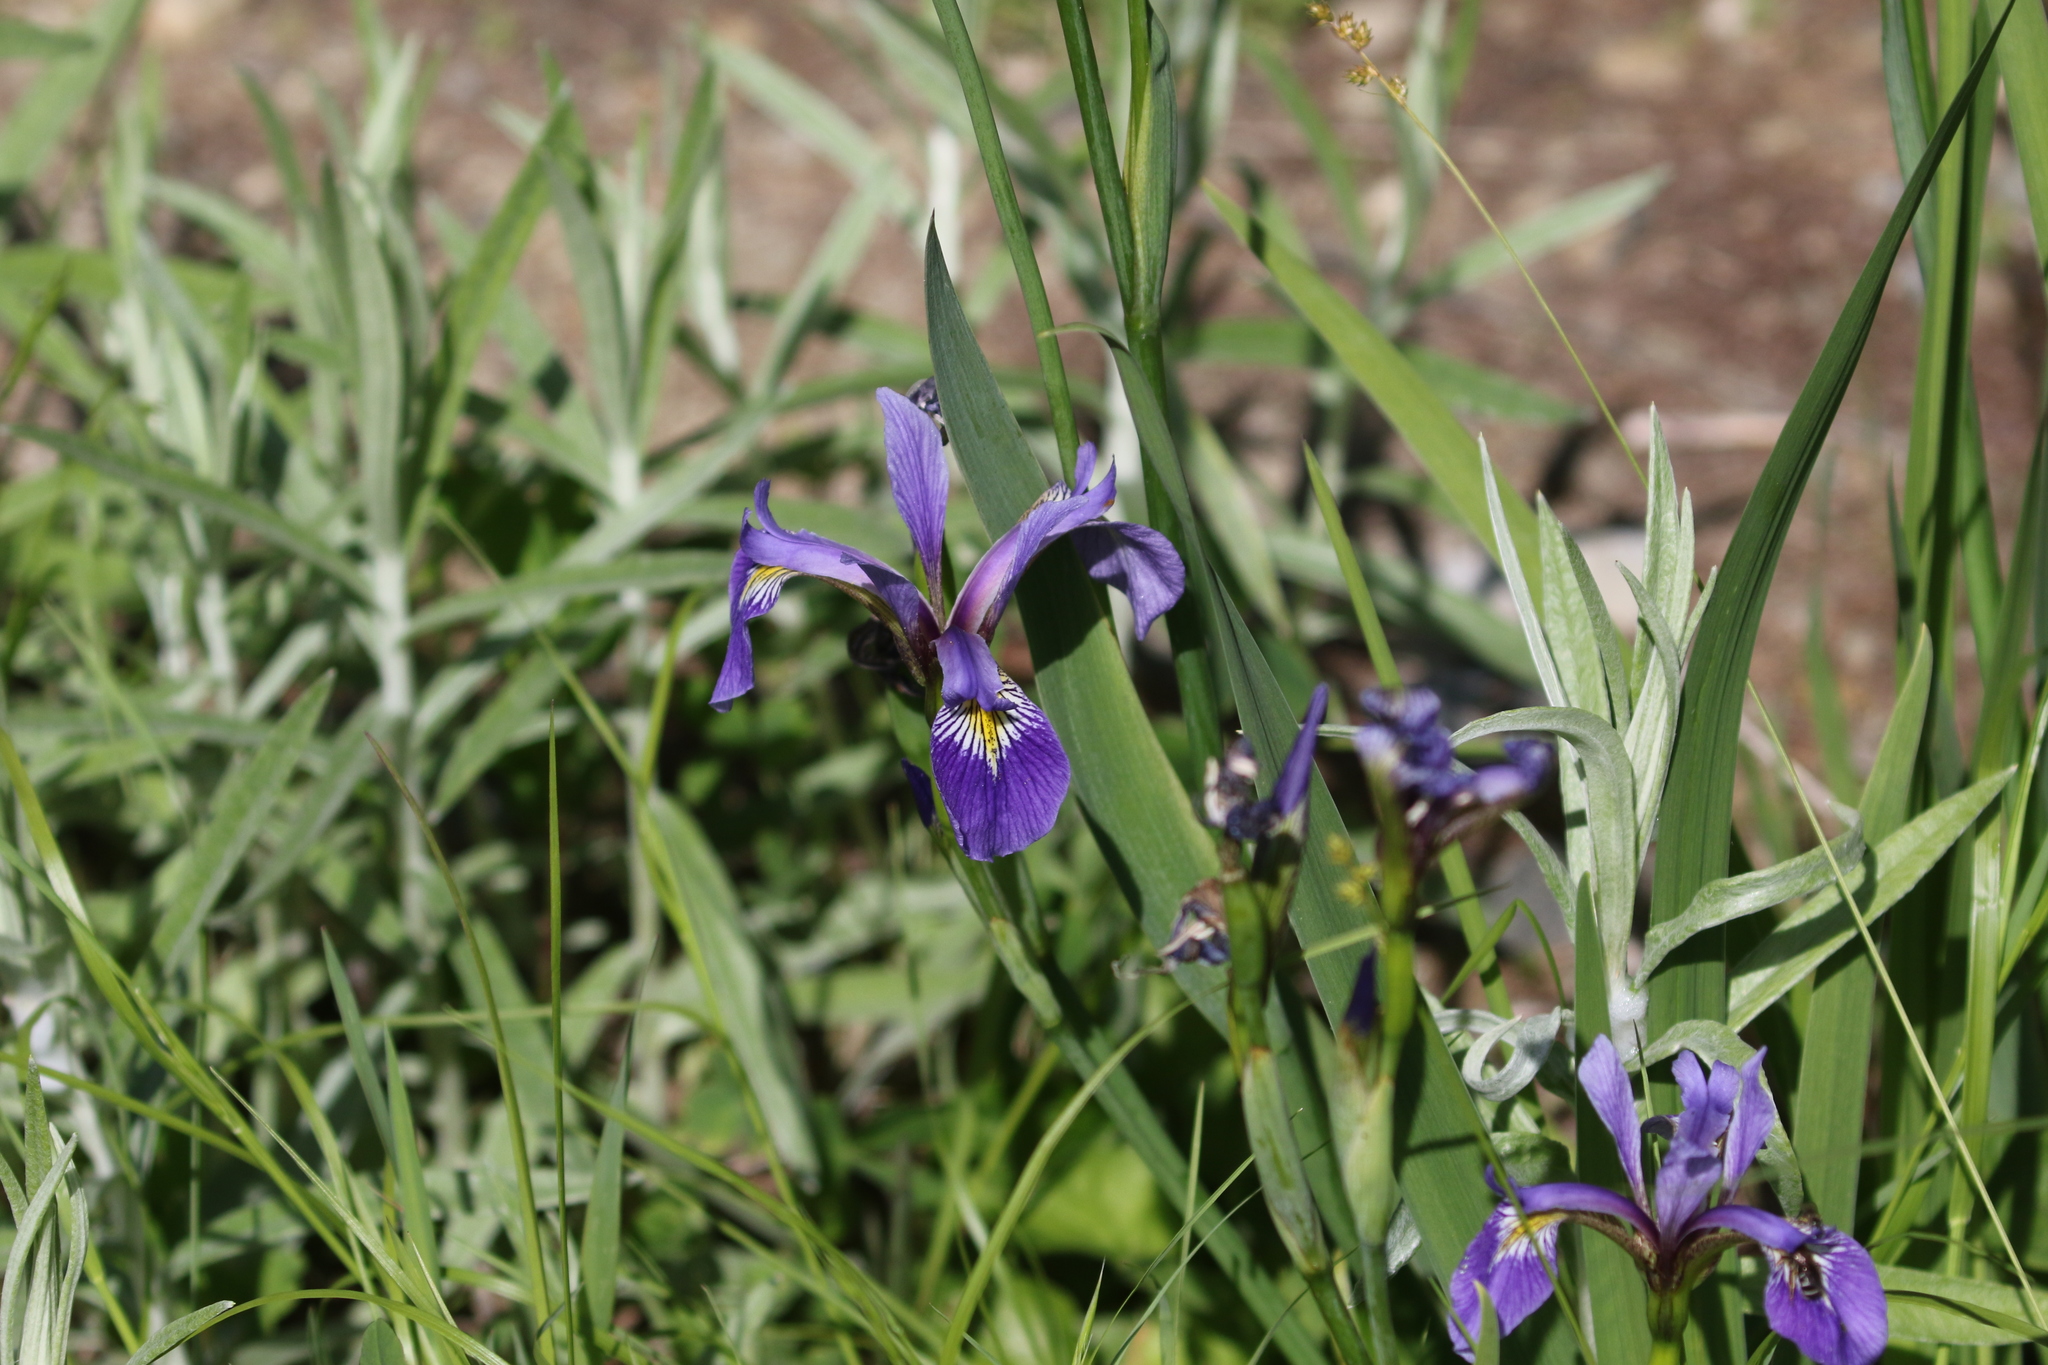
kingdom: Plantae
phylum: Tracheophyta
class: Liliopsida
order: Asparagales
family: Iridaceae
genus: Iris
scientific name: Iris versicolor
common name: Purple iris
